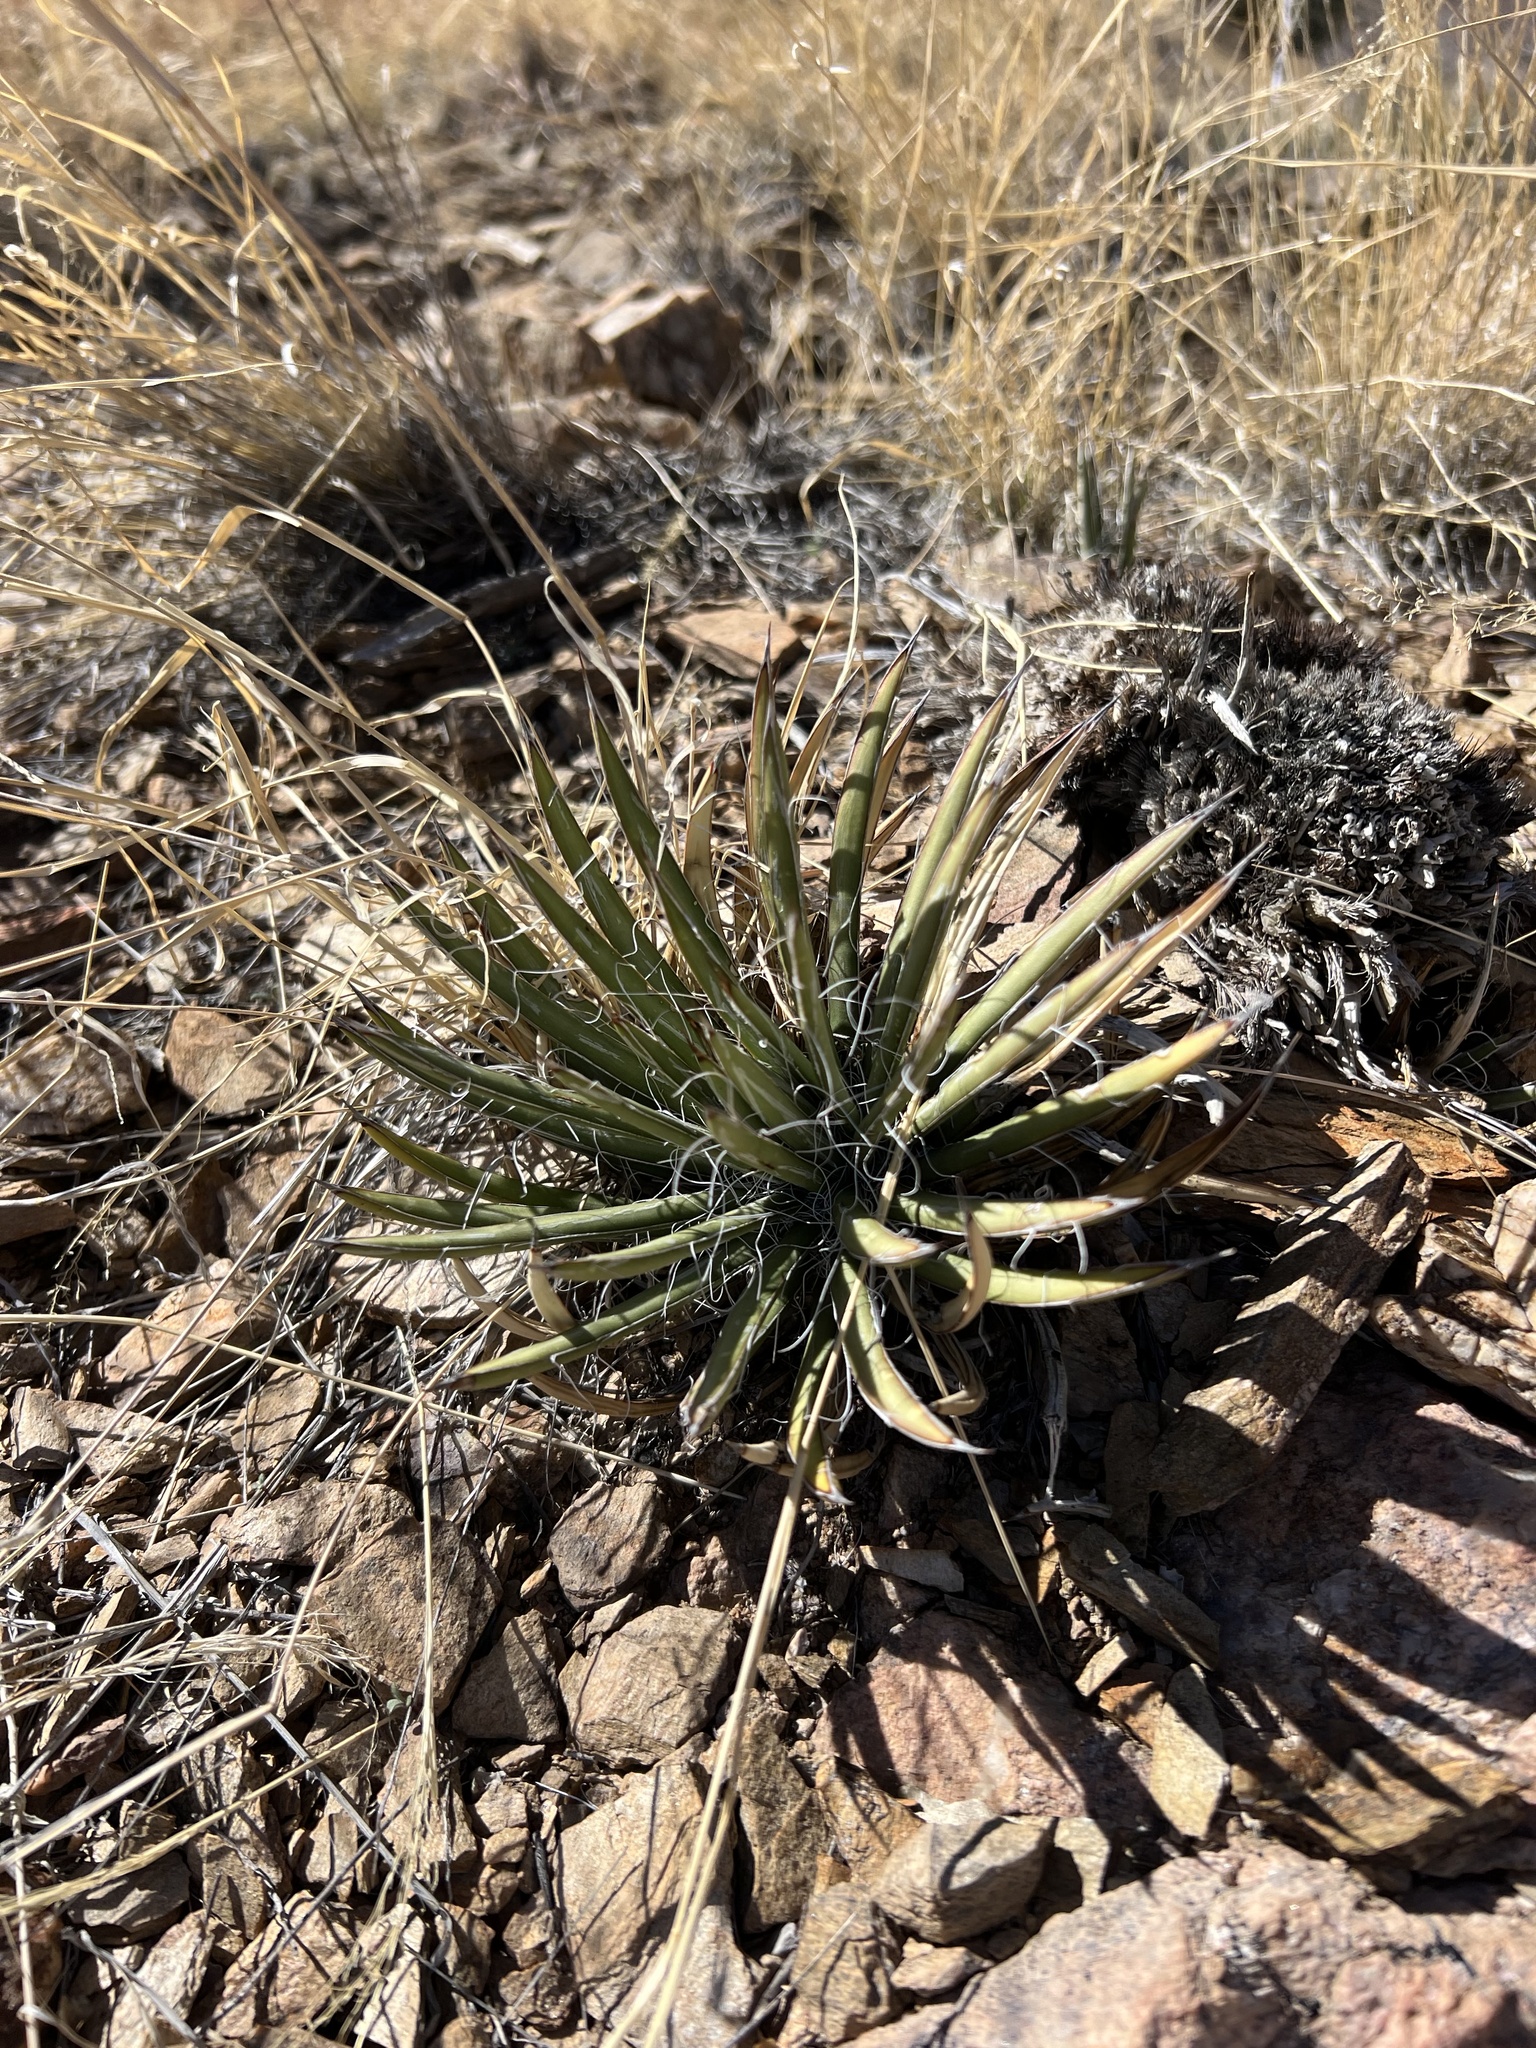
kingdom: Plantae
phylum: Tracheophyta
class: Liliopsida
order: Asparagales
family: Asparagaceae
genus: Agave
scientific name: Agave schottii
